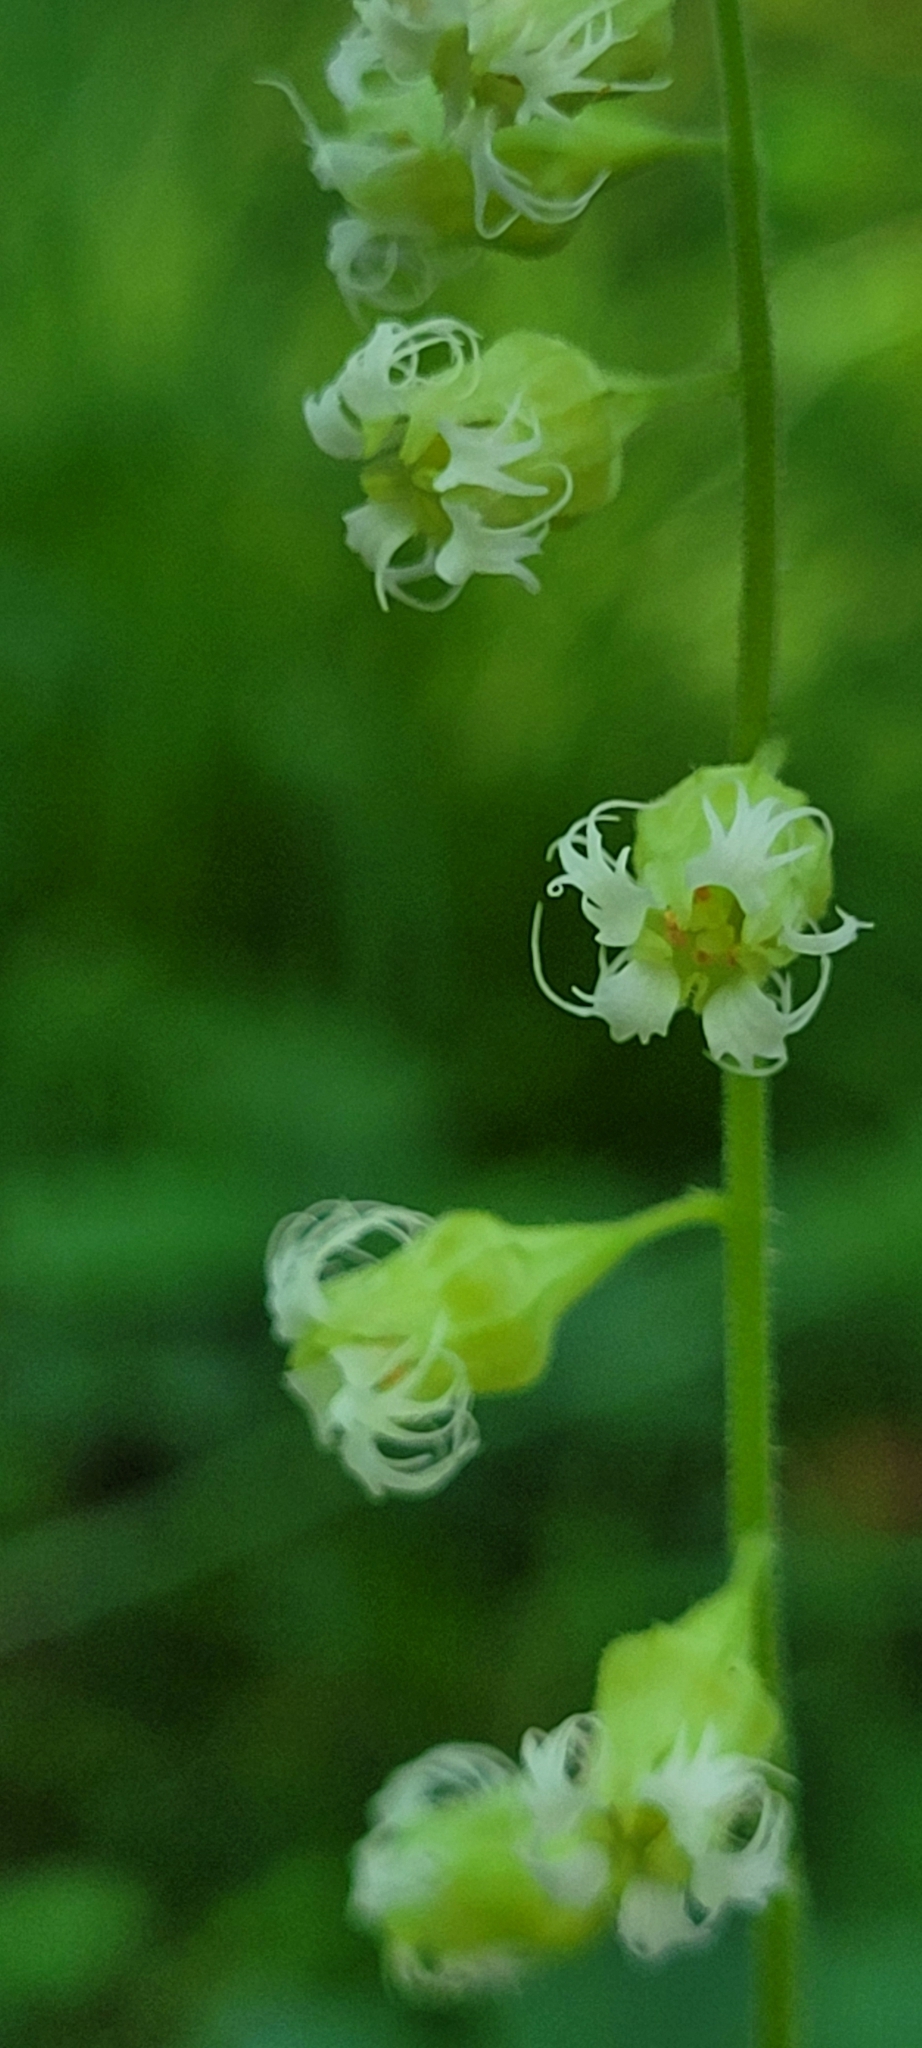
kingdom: Plantae
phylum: Tracheophyta
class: Magnoliopsida
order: Saxifragales
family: Saxifragaceae
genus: Tellima
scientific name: Tellima grandiflora
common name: Fringecups
